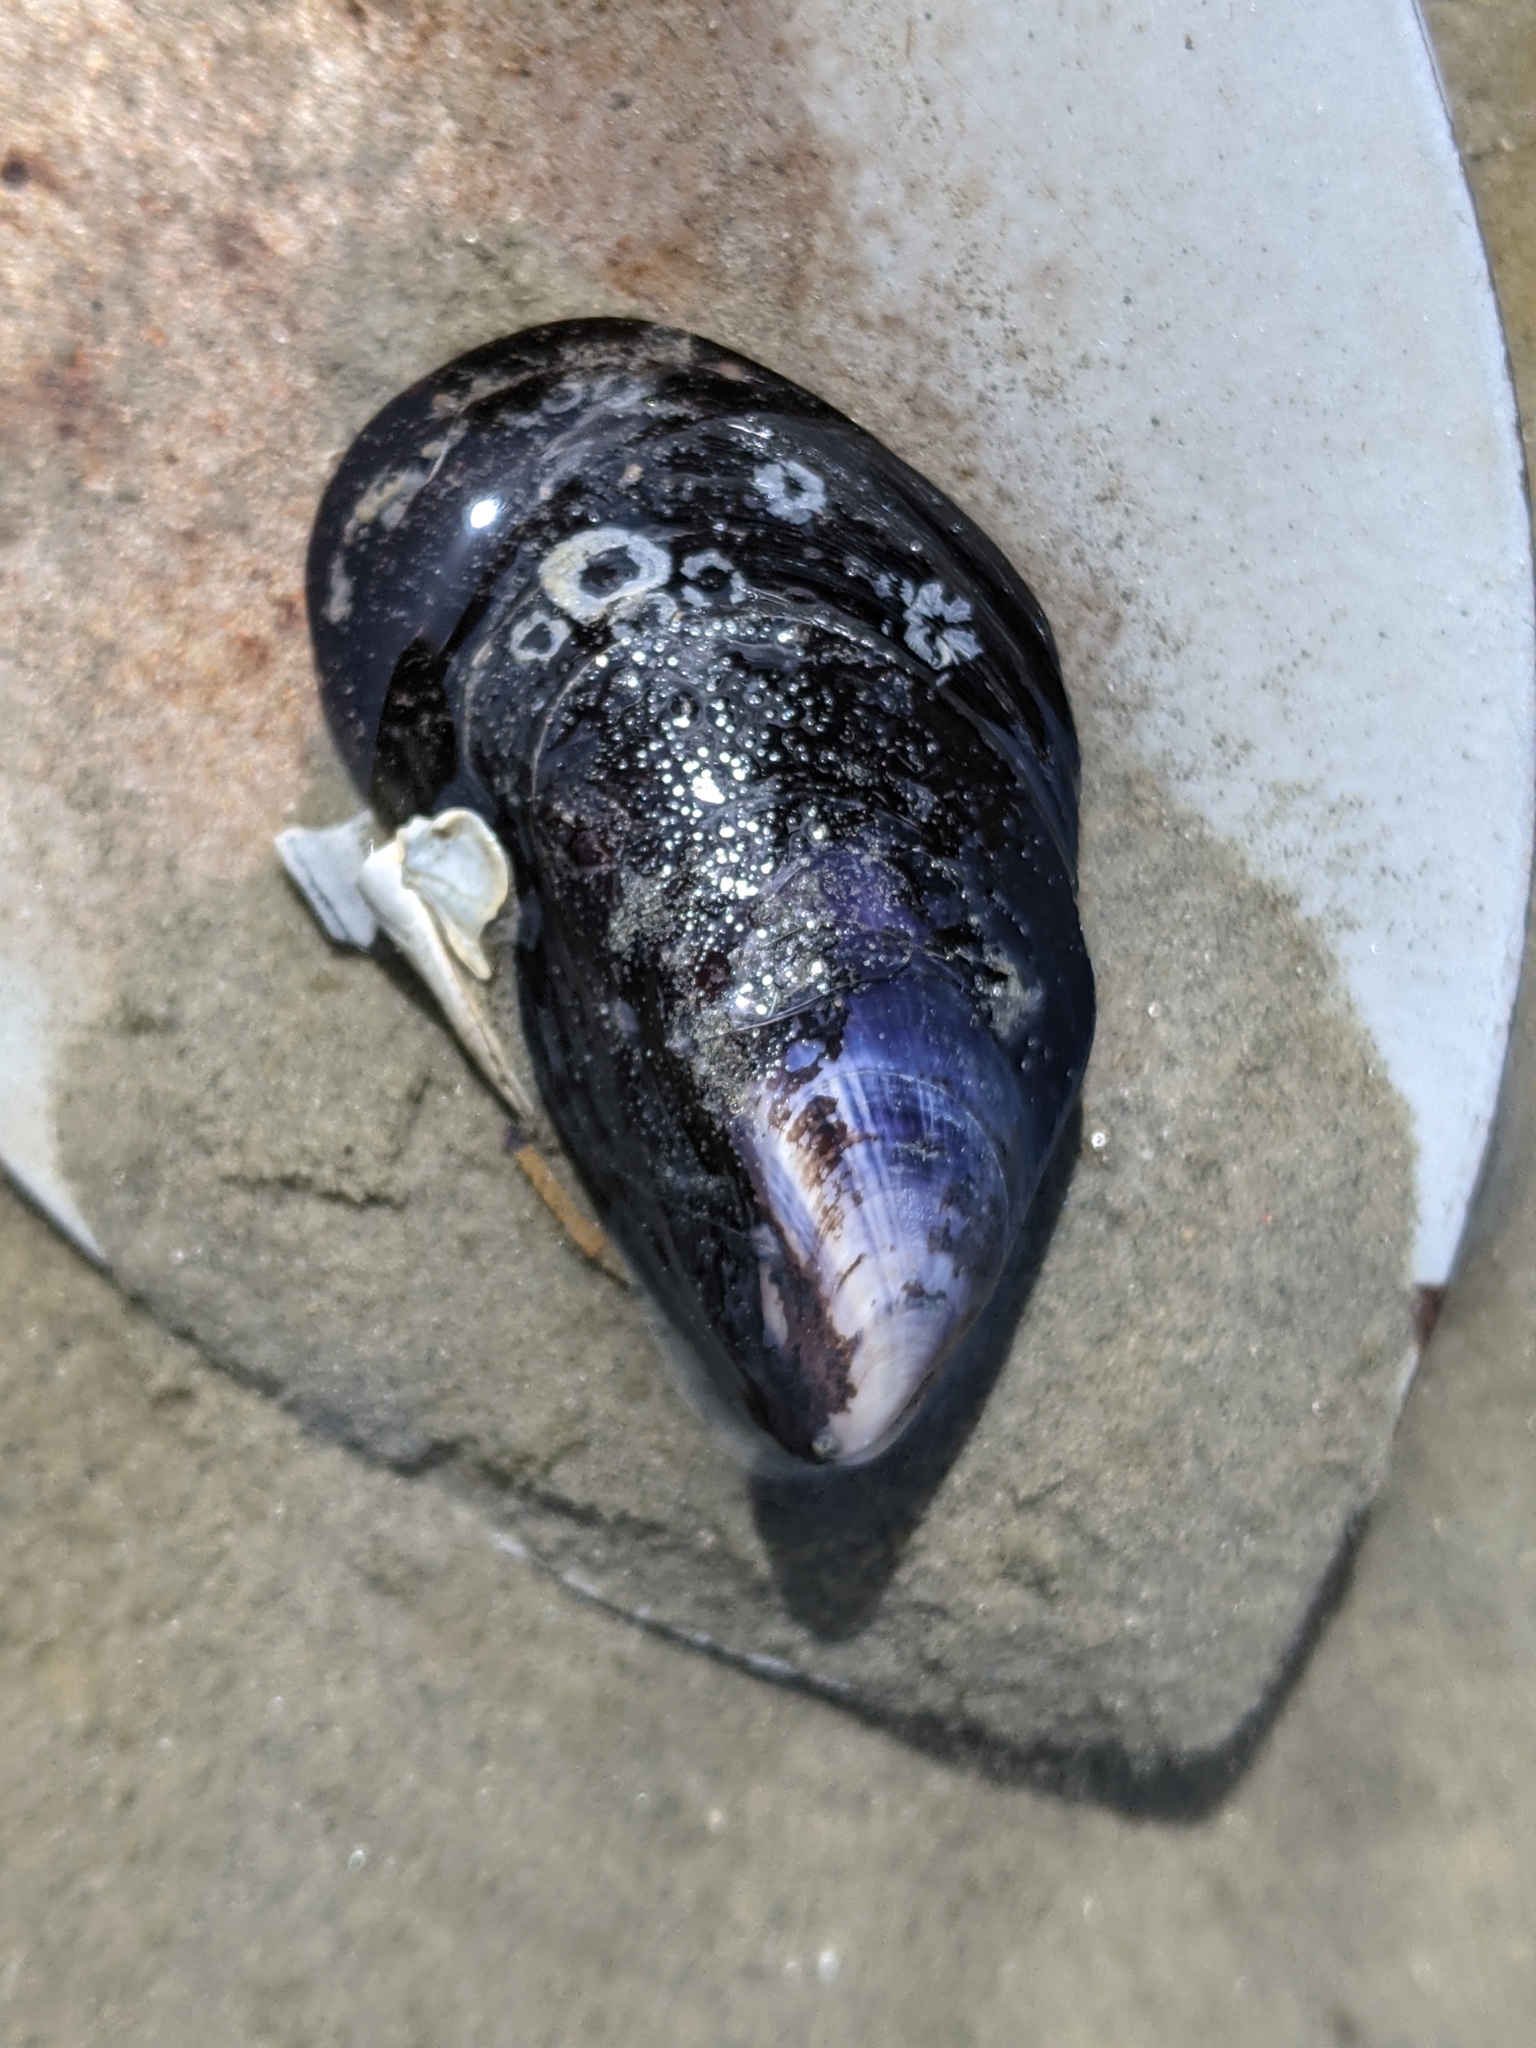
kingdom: Animalia
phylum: Mollusca
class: Bivalvia
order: Mytilida
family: Mytilidae
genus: Mytilus
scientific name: Mytilus edulis
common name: Blue mussel
